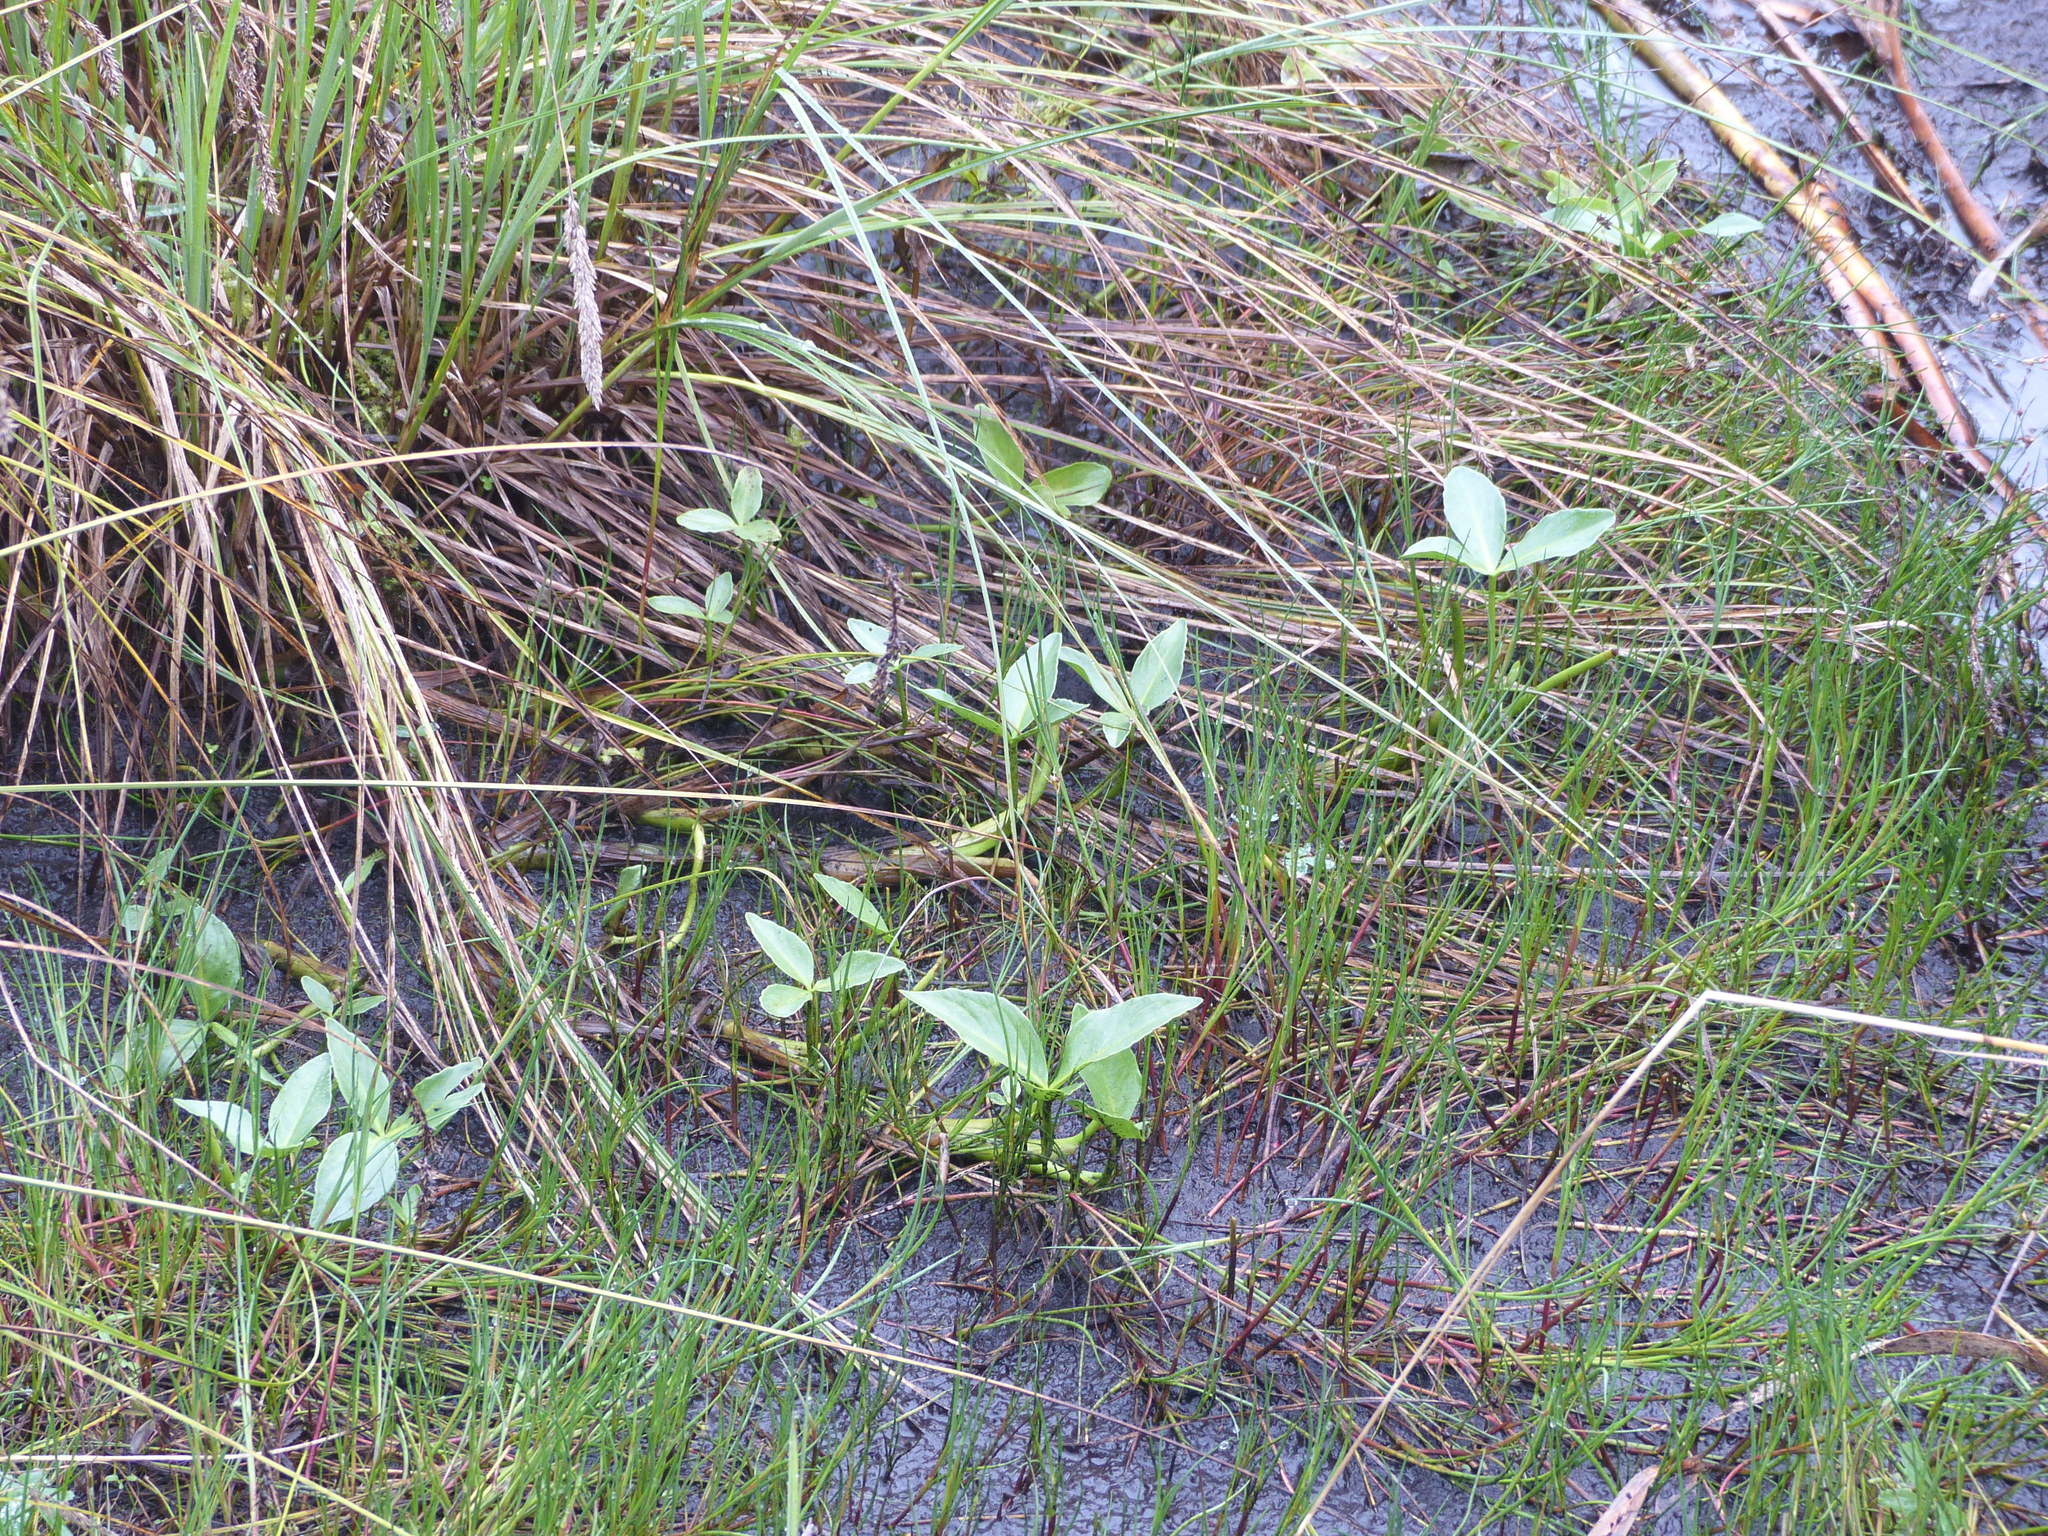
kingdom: Plantae
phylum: Tracheophyta
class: Magnoliopsida
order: Asterales
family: Menyanthaceae
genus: Menyanthes
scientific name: Menyanthes trifoliata
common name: Bogbean
